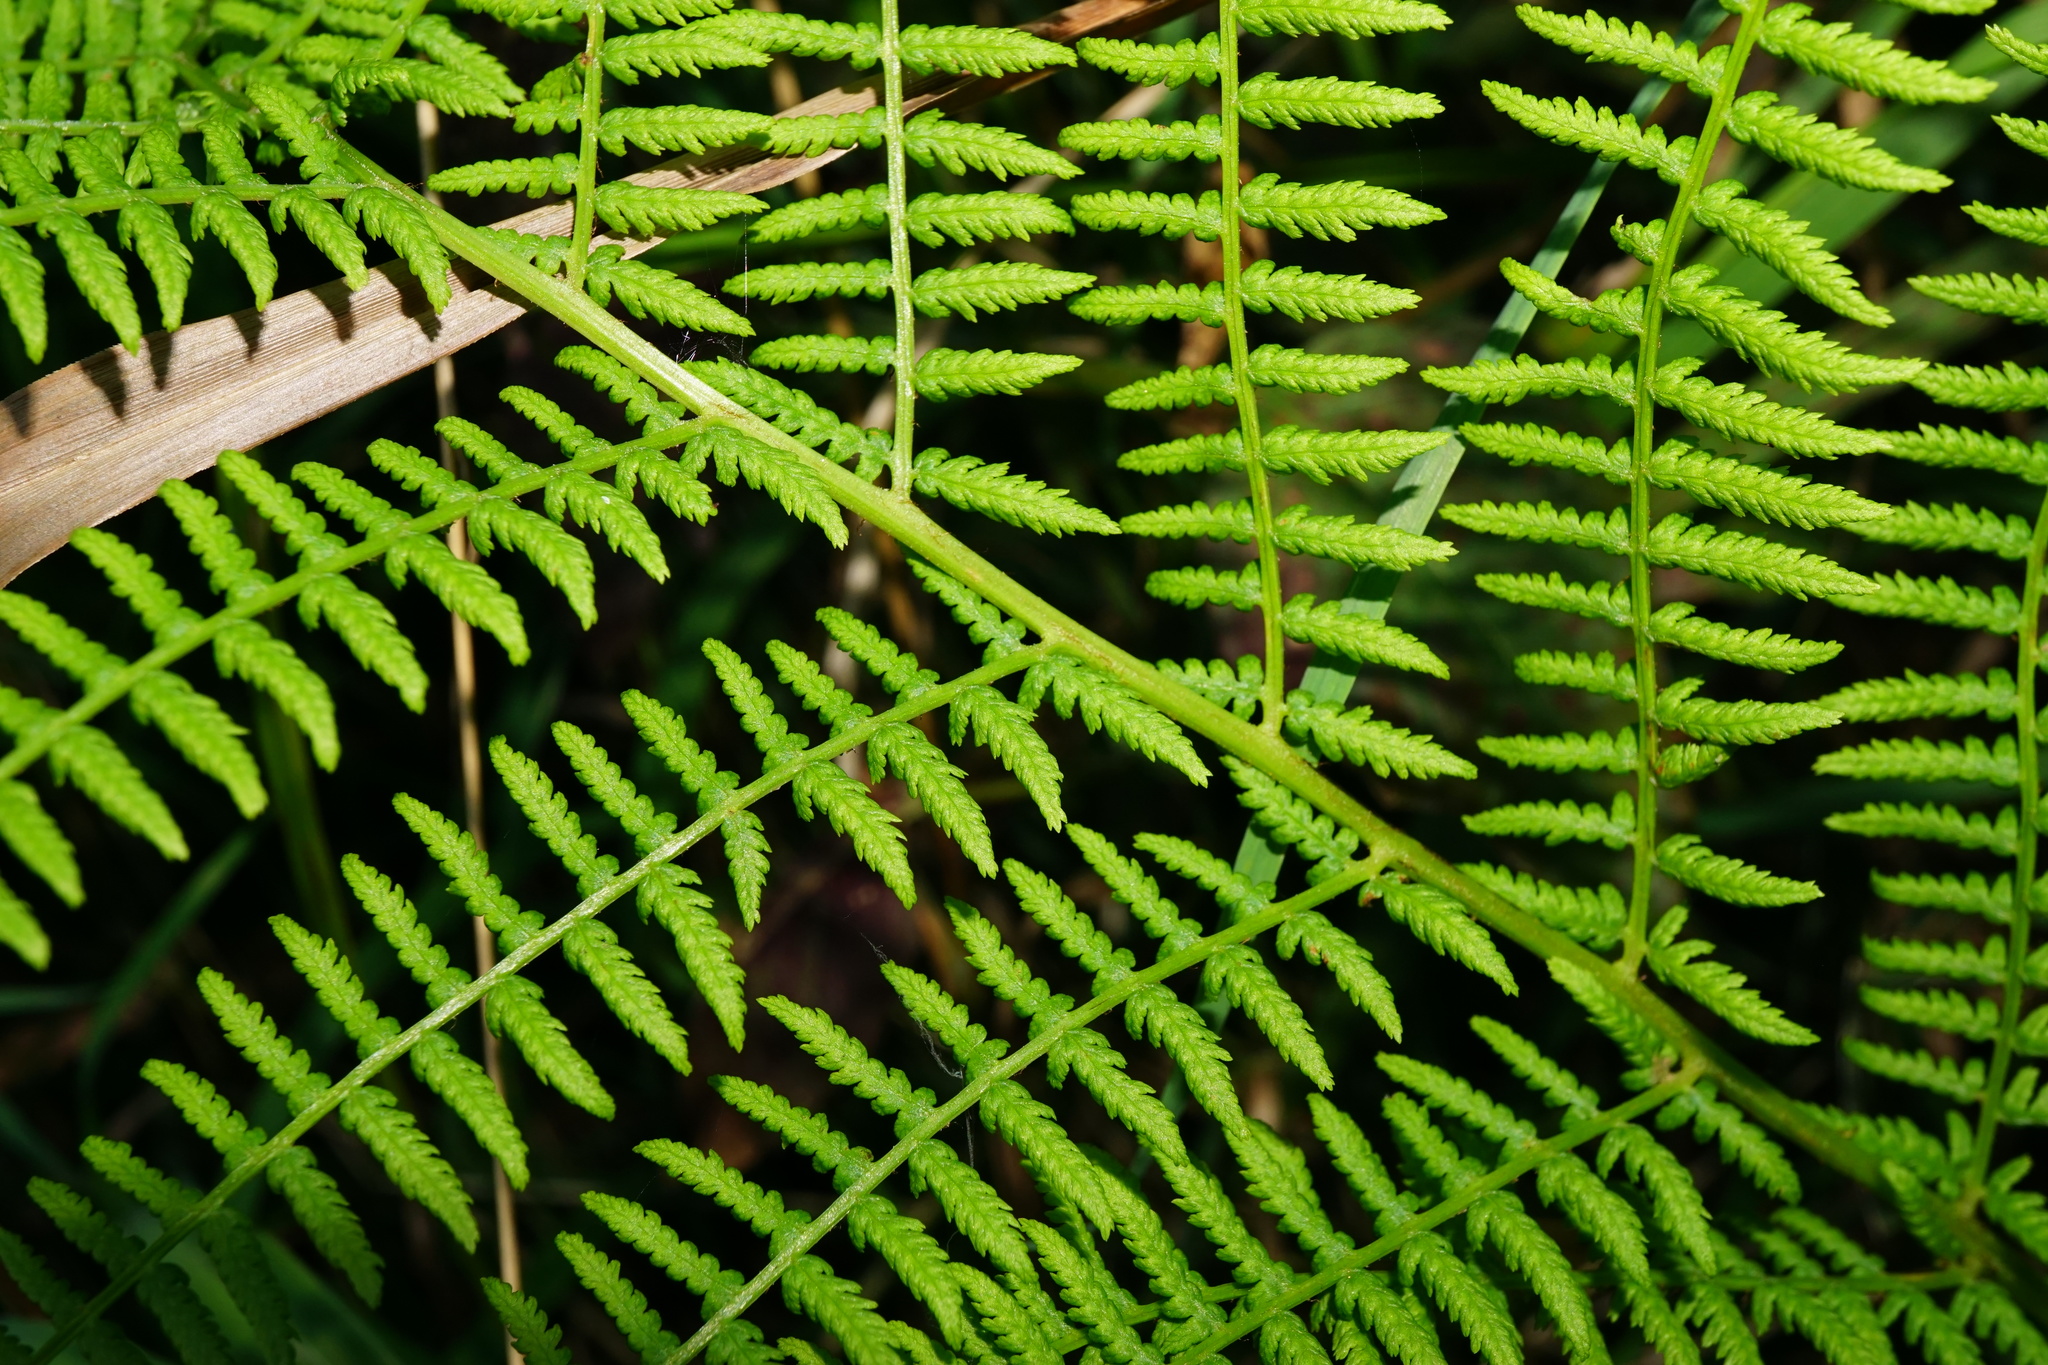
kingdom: Plantae
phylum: Tracheophyta
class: Polypodiopsida
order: Polypodiales
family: Athyriaceae
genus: Athyrium
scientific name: Athyrium filix-femina
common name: Lady fern
